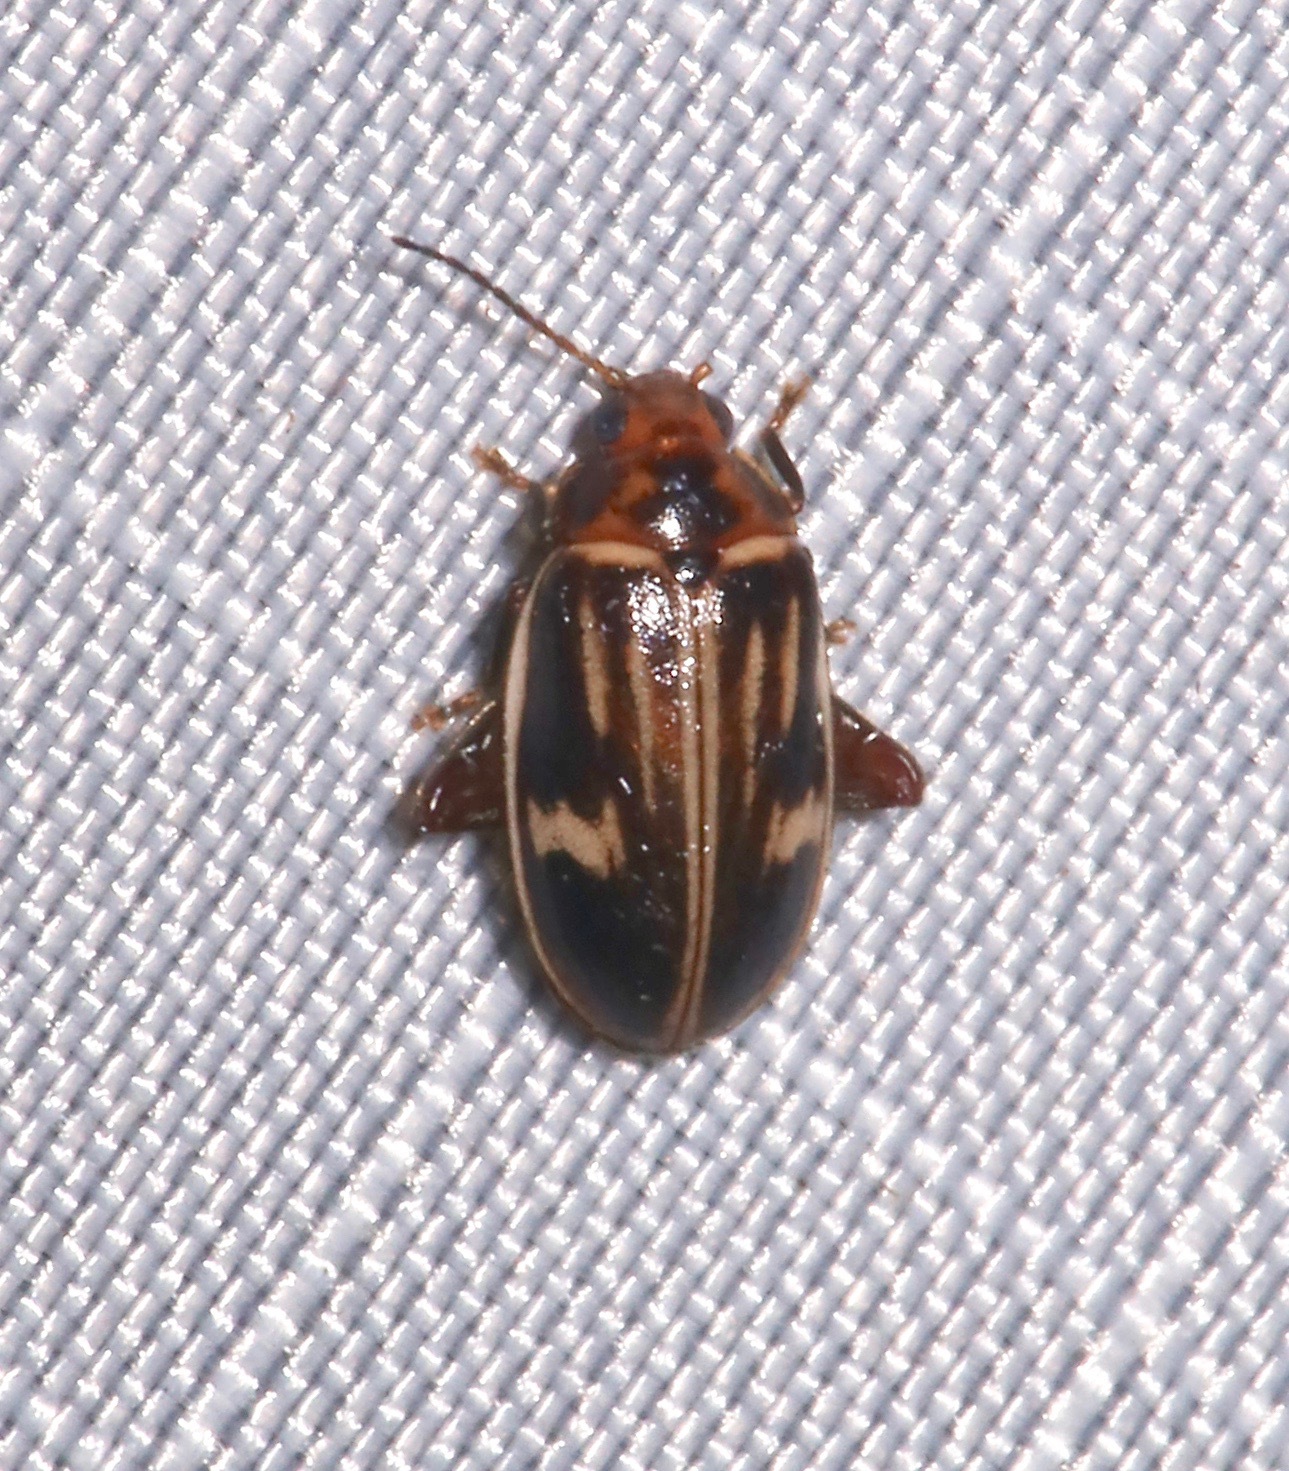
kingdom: Animalia
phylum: Arthropoda
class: Insecta
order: Coleoptera
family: Scirtidae
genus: Ora
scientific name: Ora troberti
